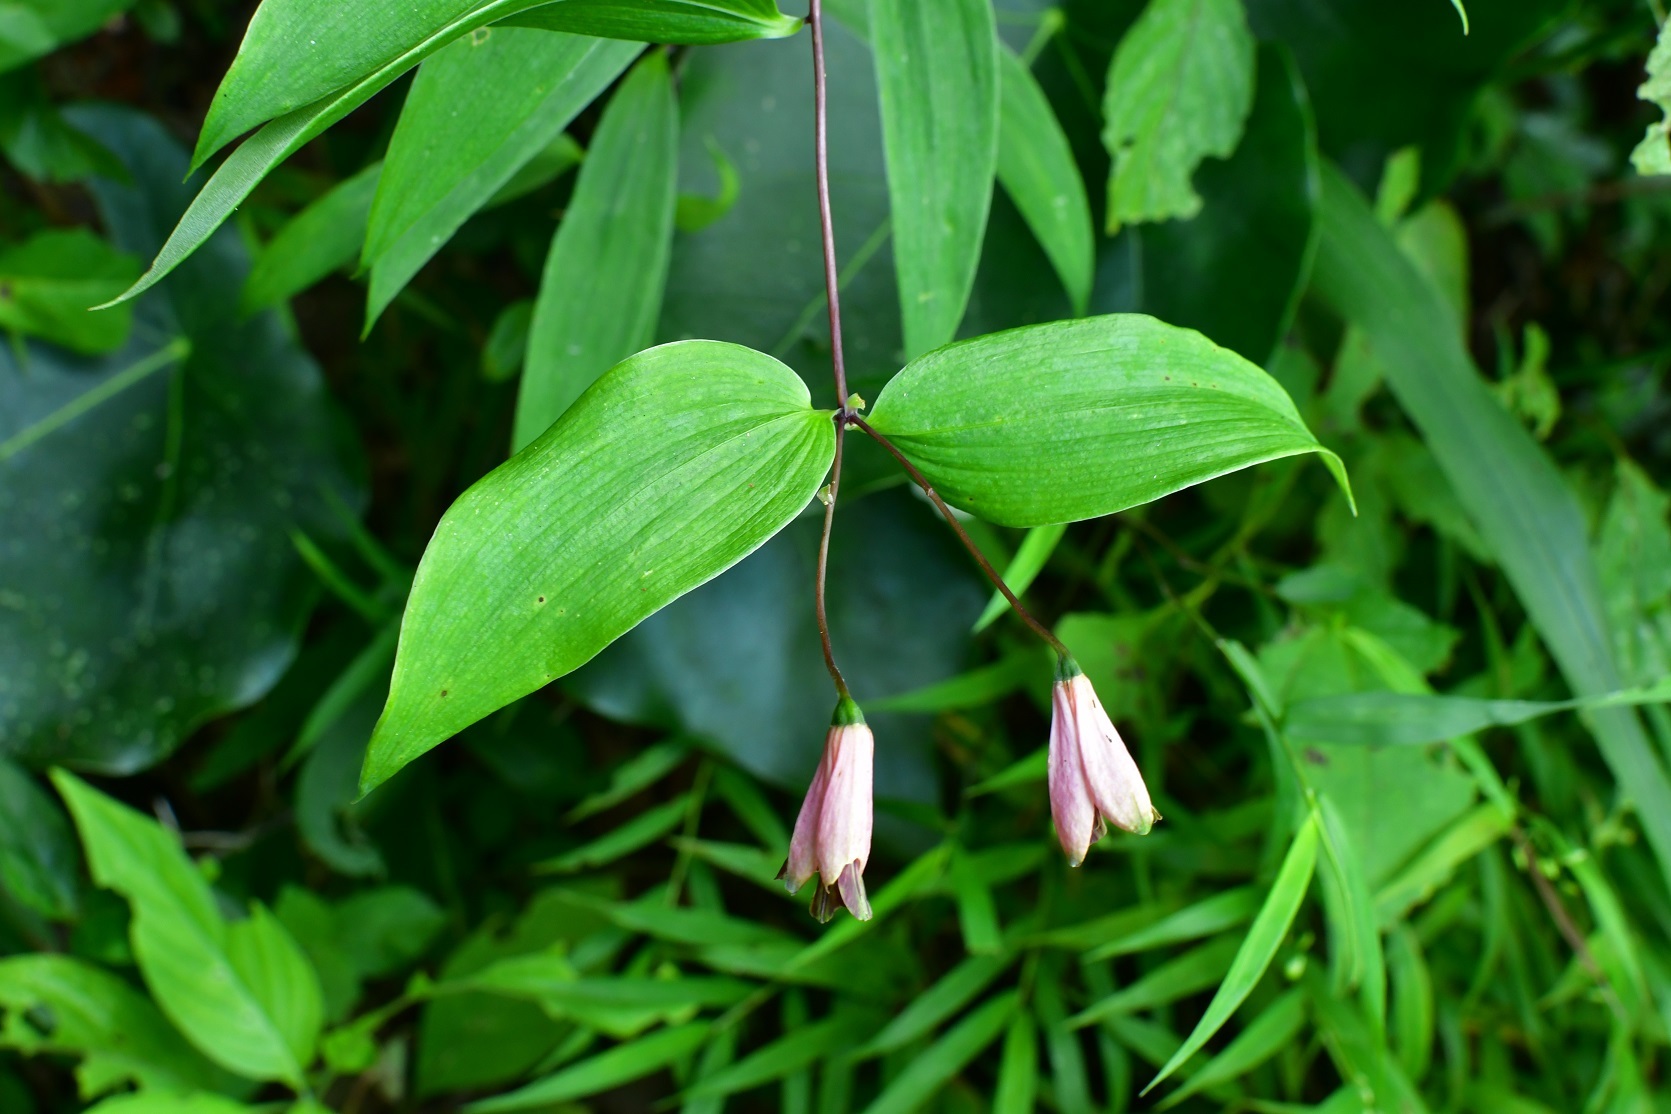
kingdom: Plantae
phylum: Tracheophyta
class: Liliopsida
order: Liliales
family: Alstroemeriaceae
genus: Bomarea
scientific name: Bomarea edulis
